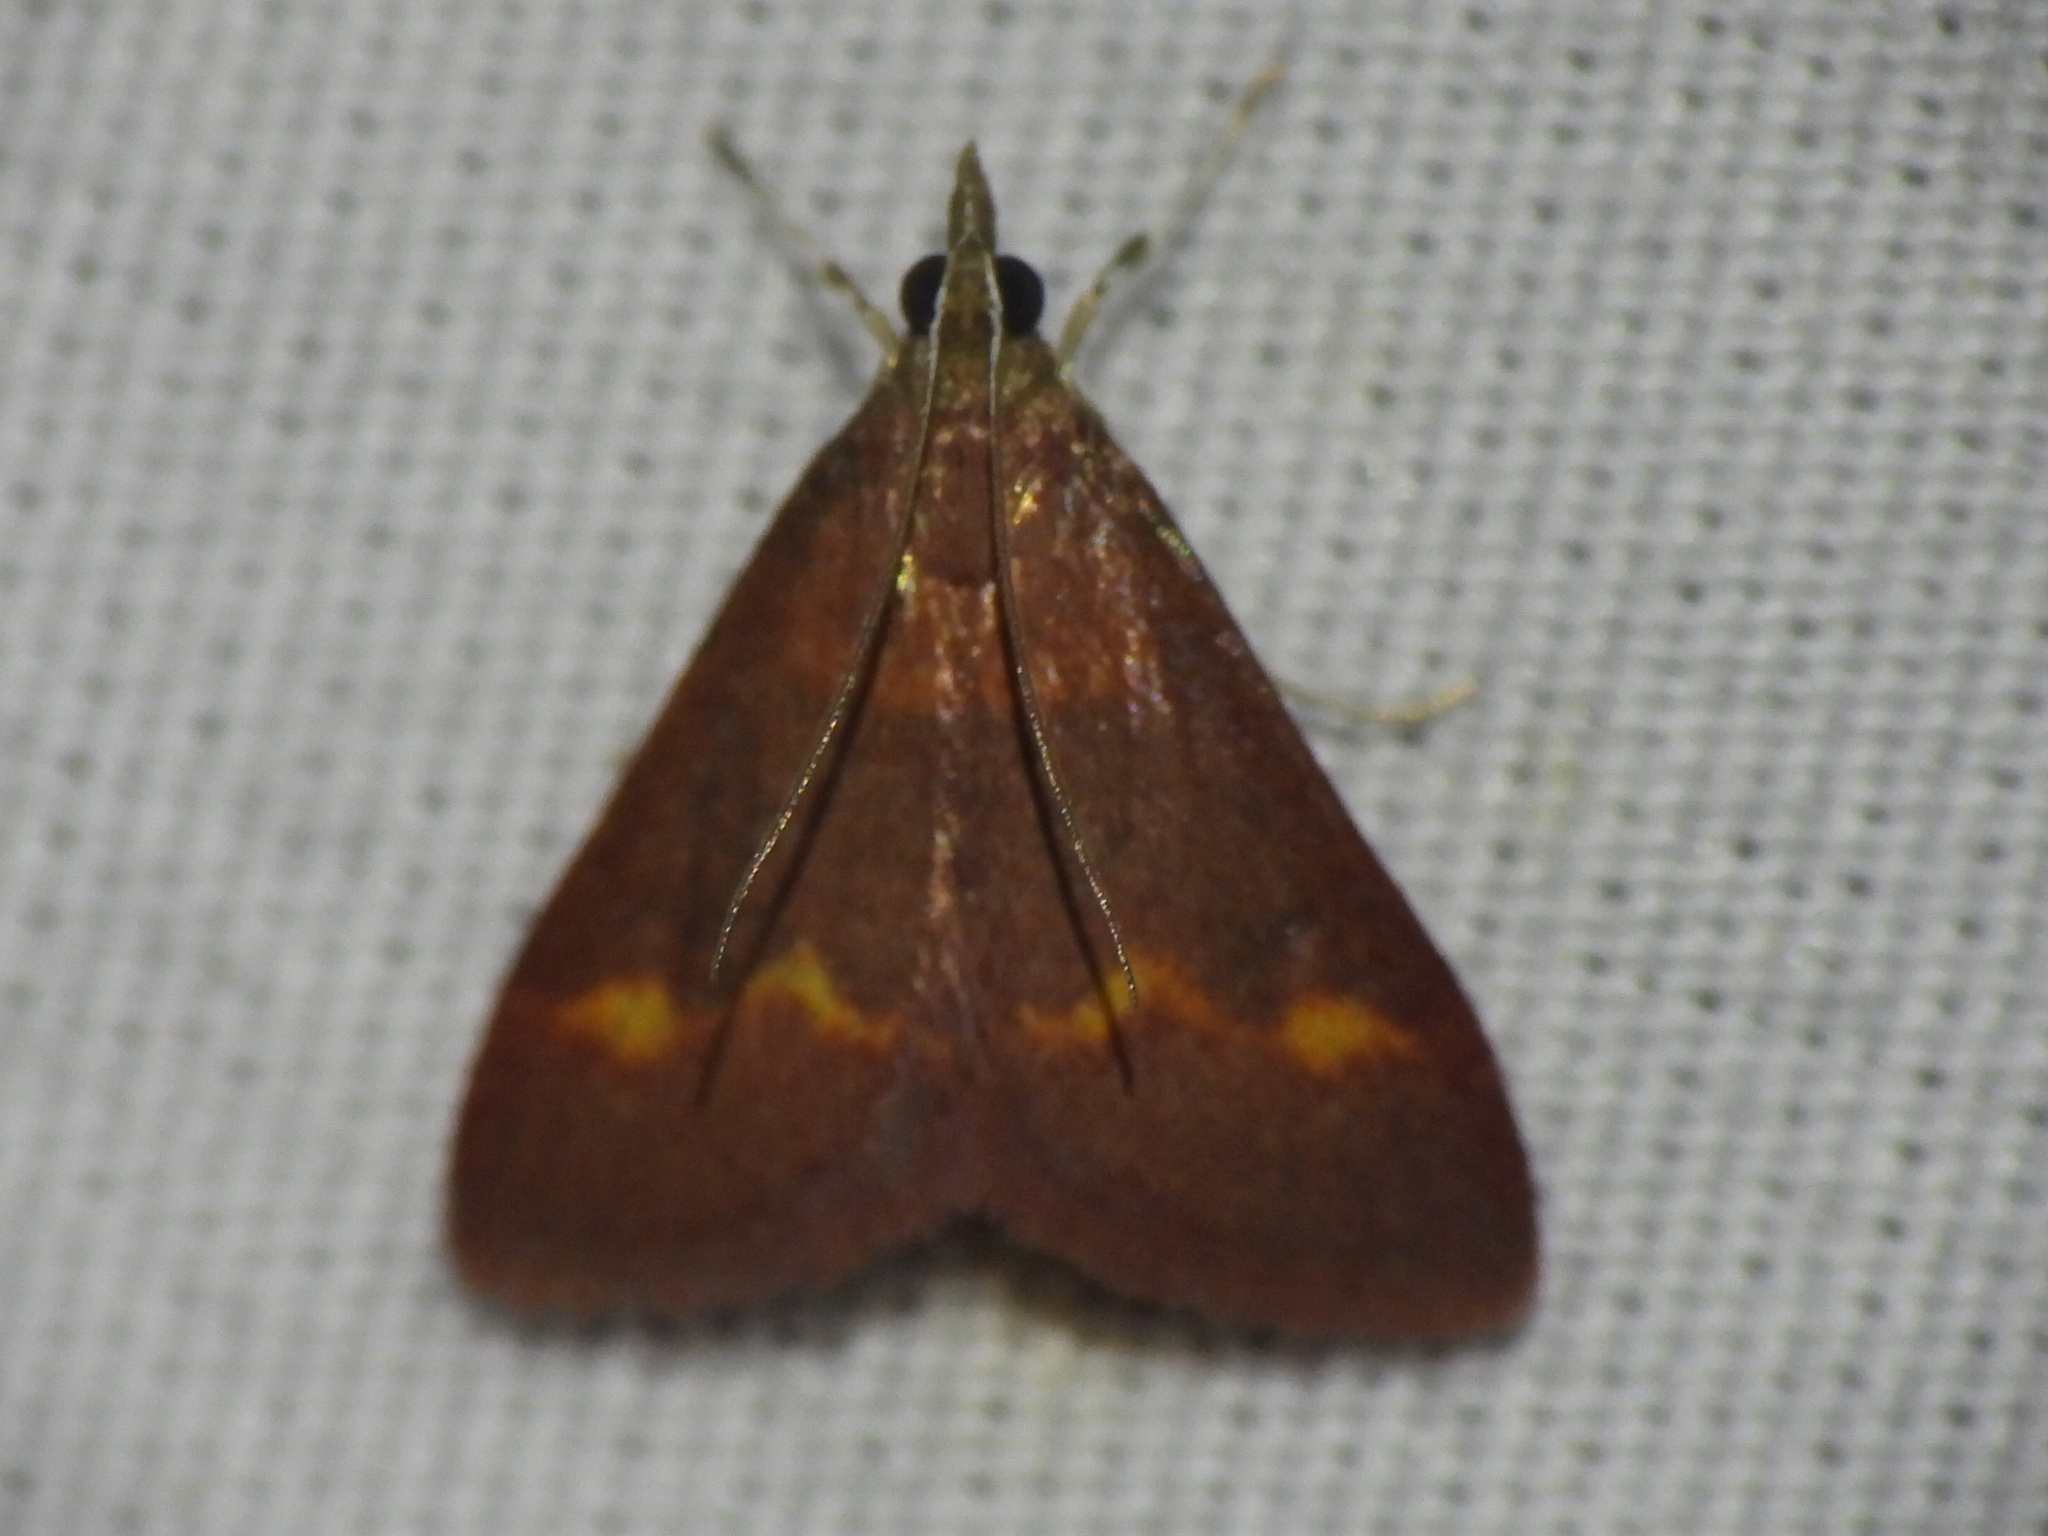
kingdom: Animalia
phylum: Arthropoda
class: Insecta
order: Lepidoptera
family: Crambidae
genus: Pyrausta
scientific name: Pyrausta pseuderosnealis
